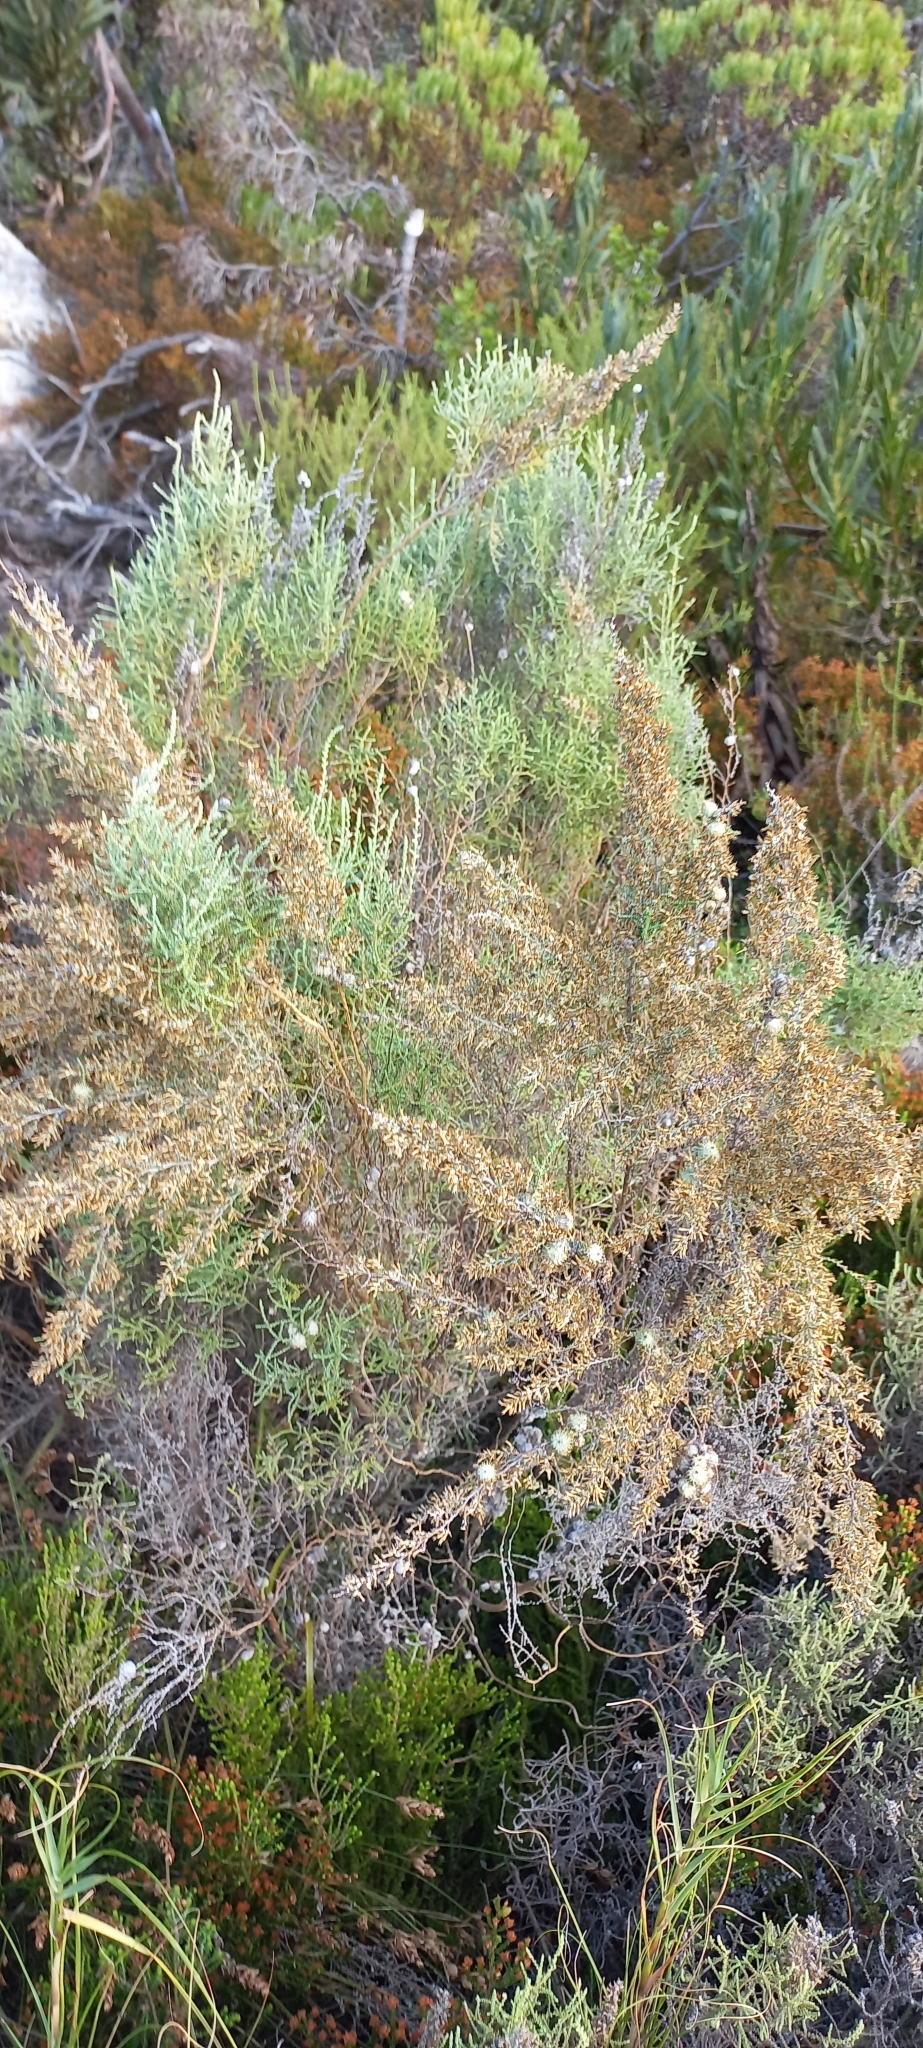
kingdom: Plantae
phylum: Tracheophyta
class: Magnoliopsida
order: Asterales
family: Asteraceae
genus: Seriphium
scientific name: Seriphium plumosum
